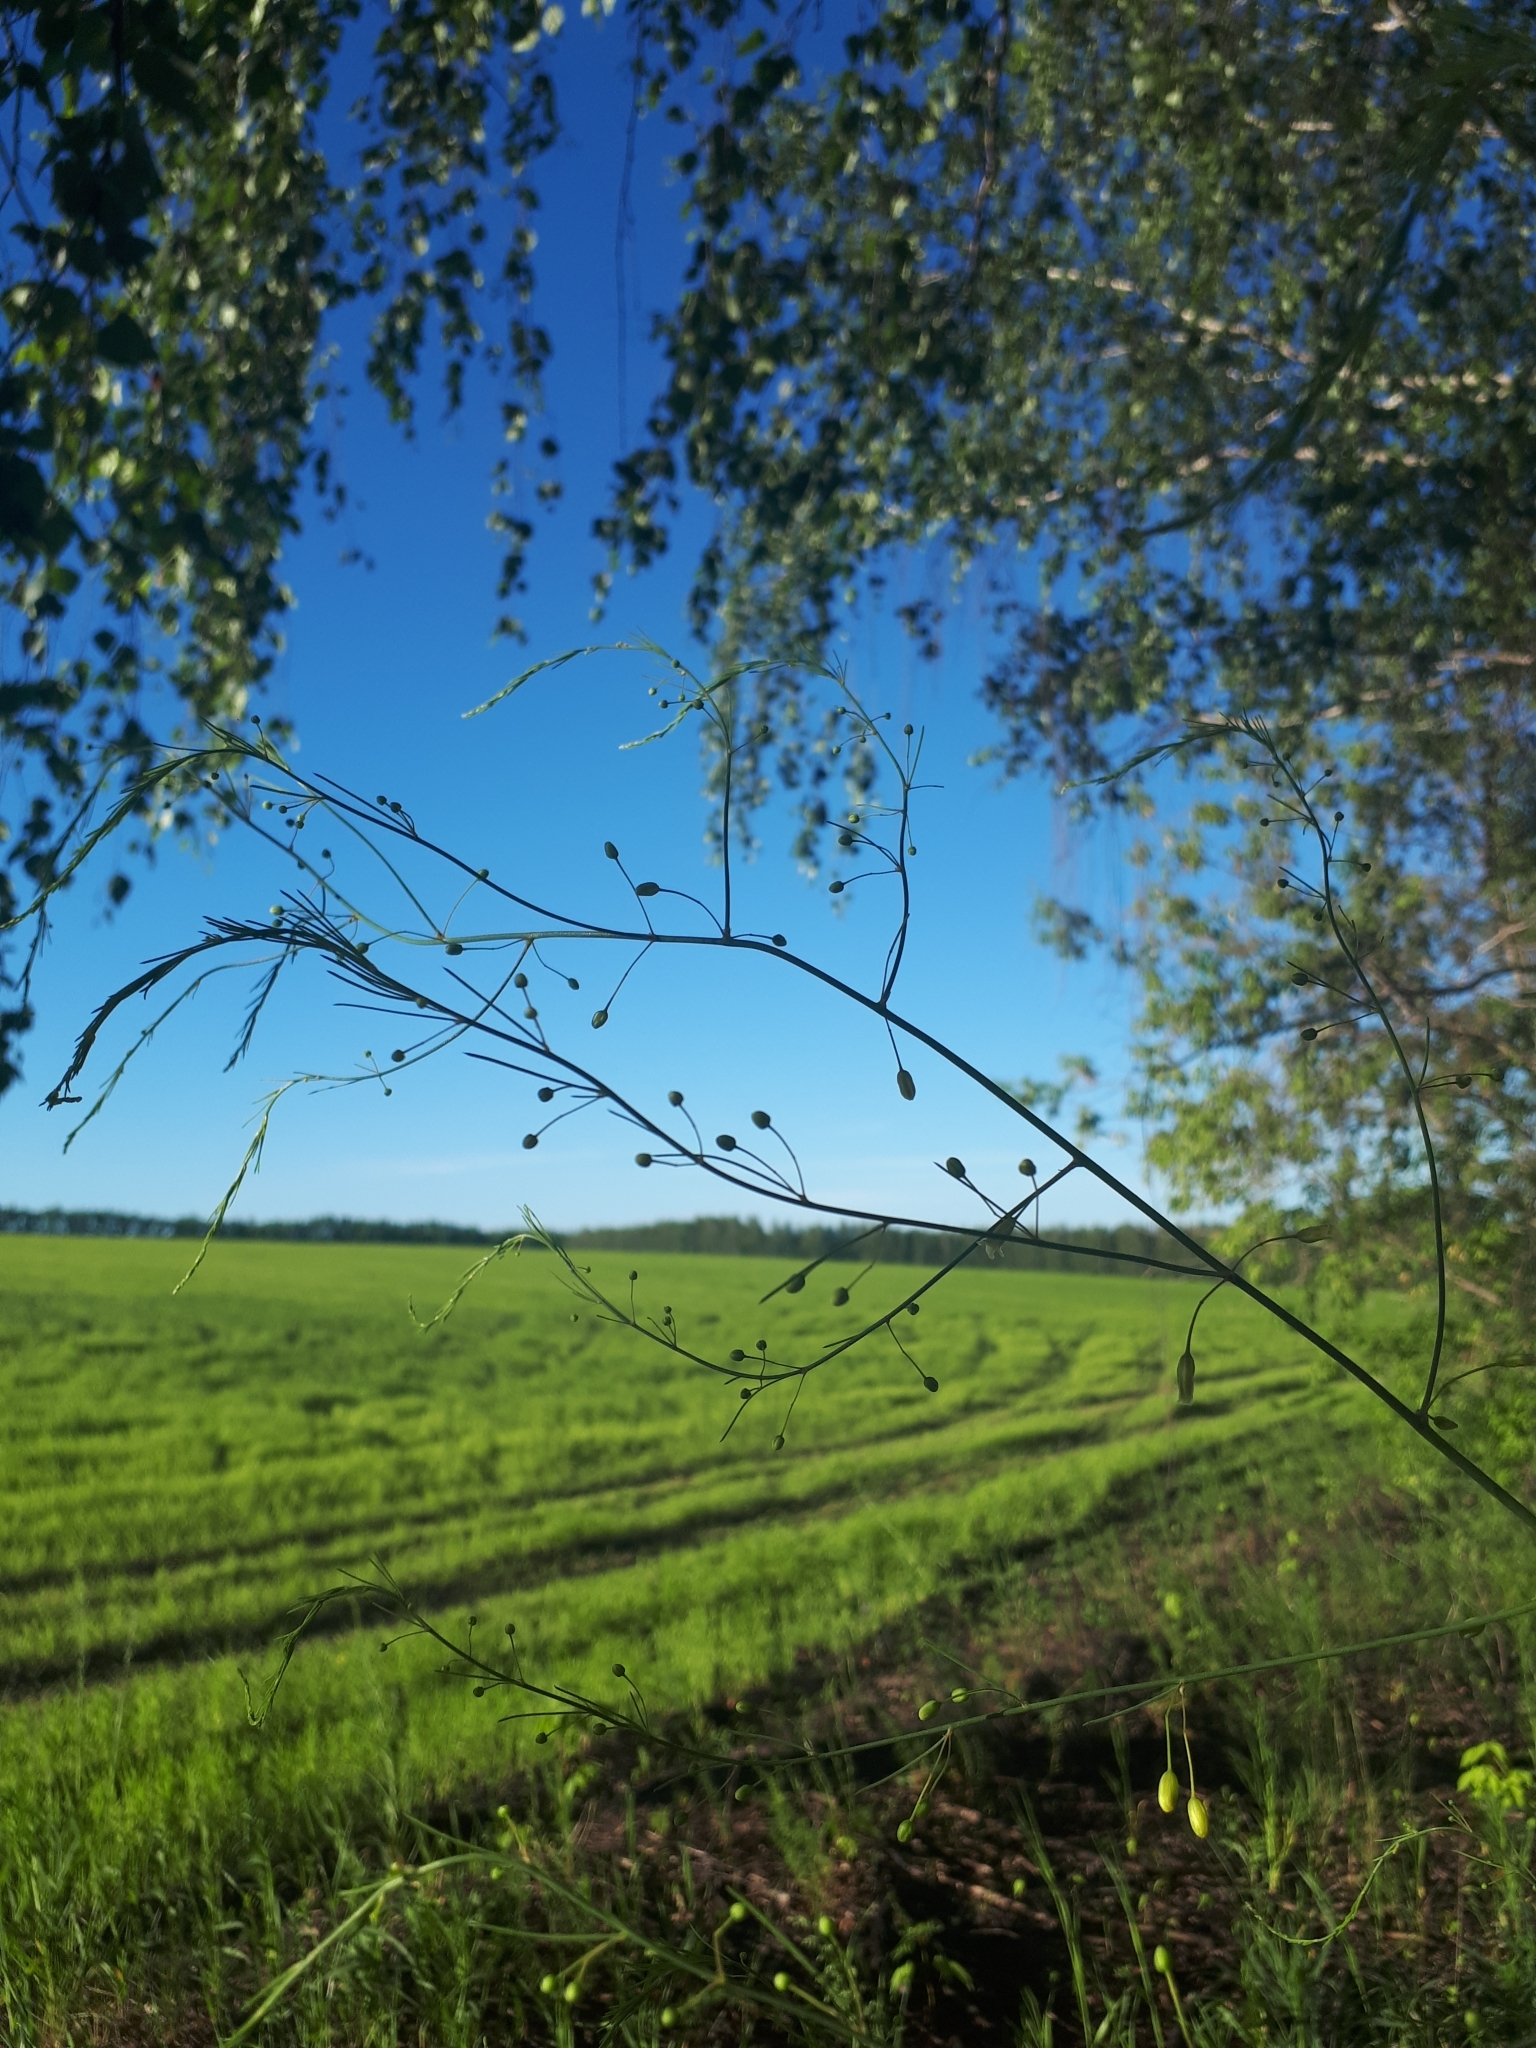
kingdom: Plantae
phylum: Tracheophyta
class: Liliopsida
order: Asparagales
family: Asparagaceae
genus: Asparagus
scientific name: Asparagus officinalis
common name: Garden asparagus
